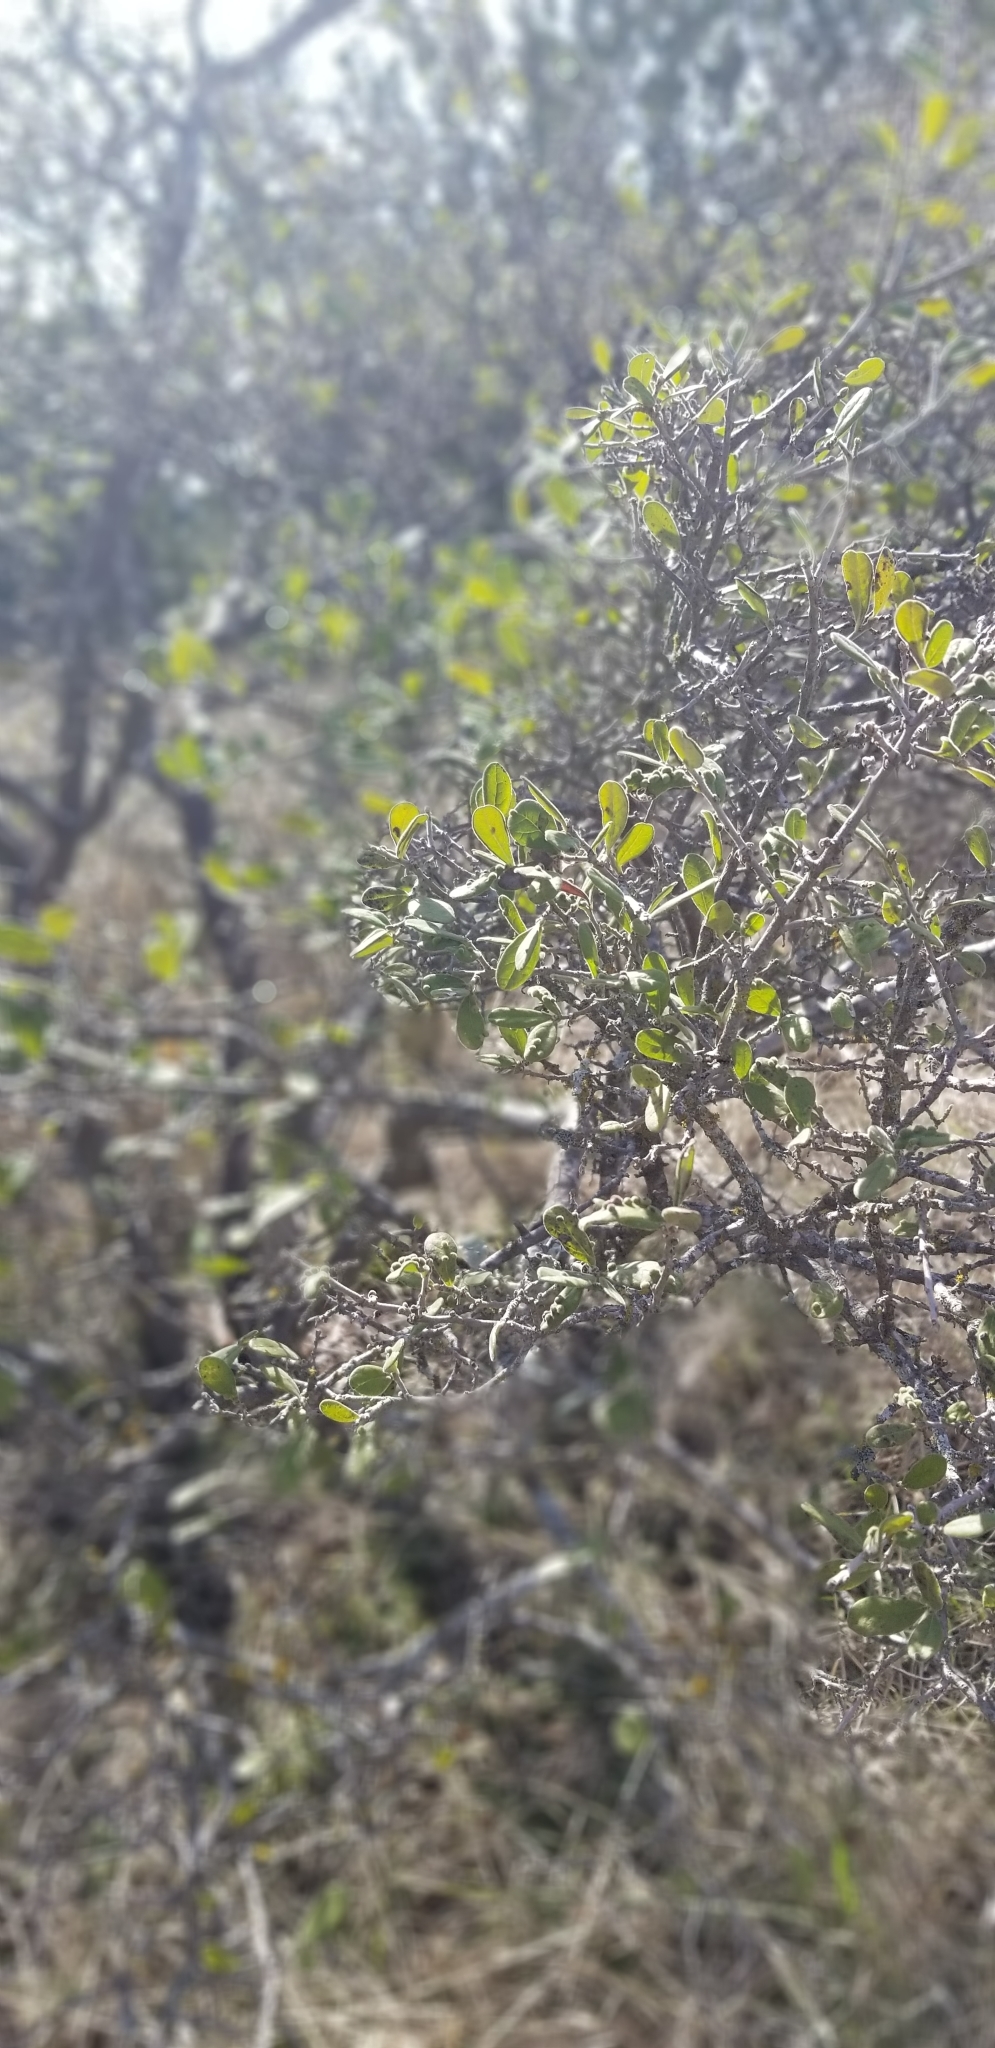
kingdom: Plantae
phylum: Tracheophyta
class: Magnoliopsida
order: Ericales
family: Ebenaceae
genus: Diospyros
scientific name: Diospyros texana
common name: Texas persimmon
